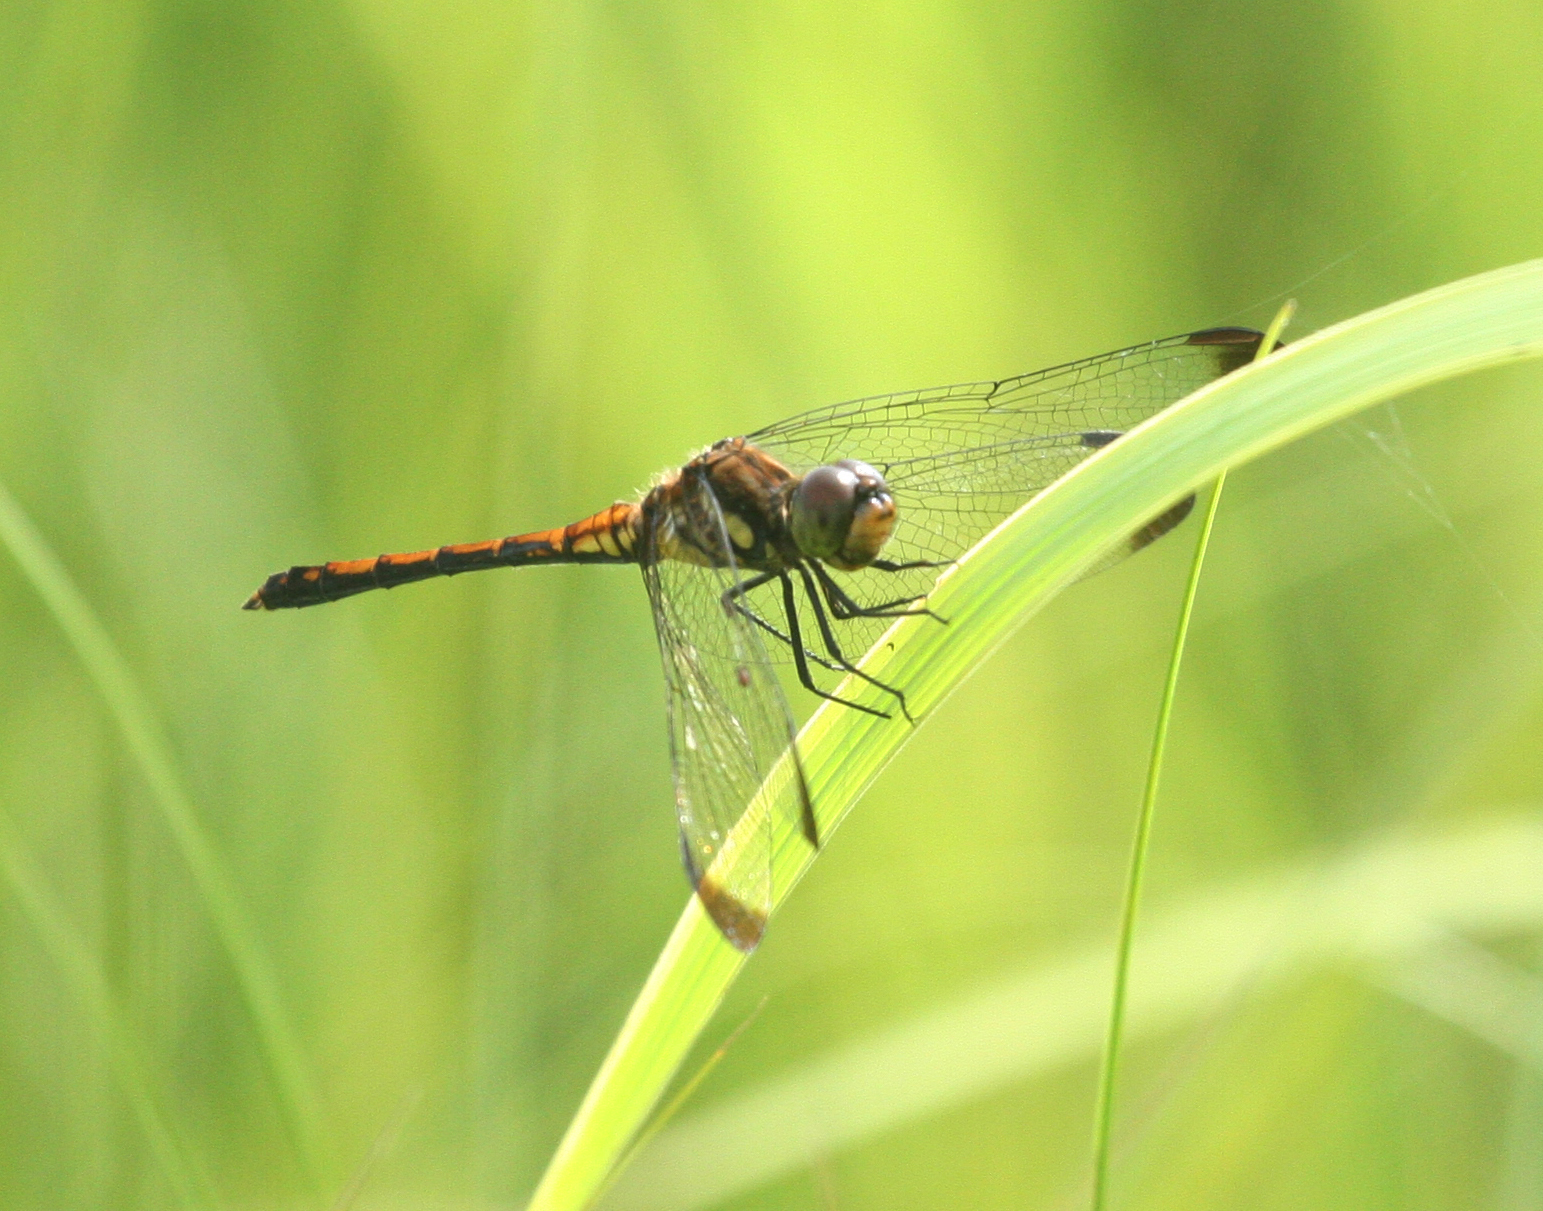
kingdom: Animalia
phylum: Arthropoda
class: Insecta
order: Odonata
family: Libellulidae
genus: Sympetrum
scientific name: Sympetrum infuscatum
